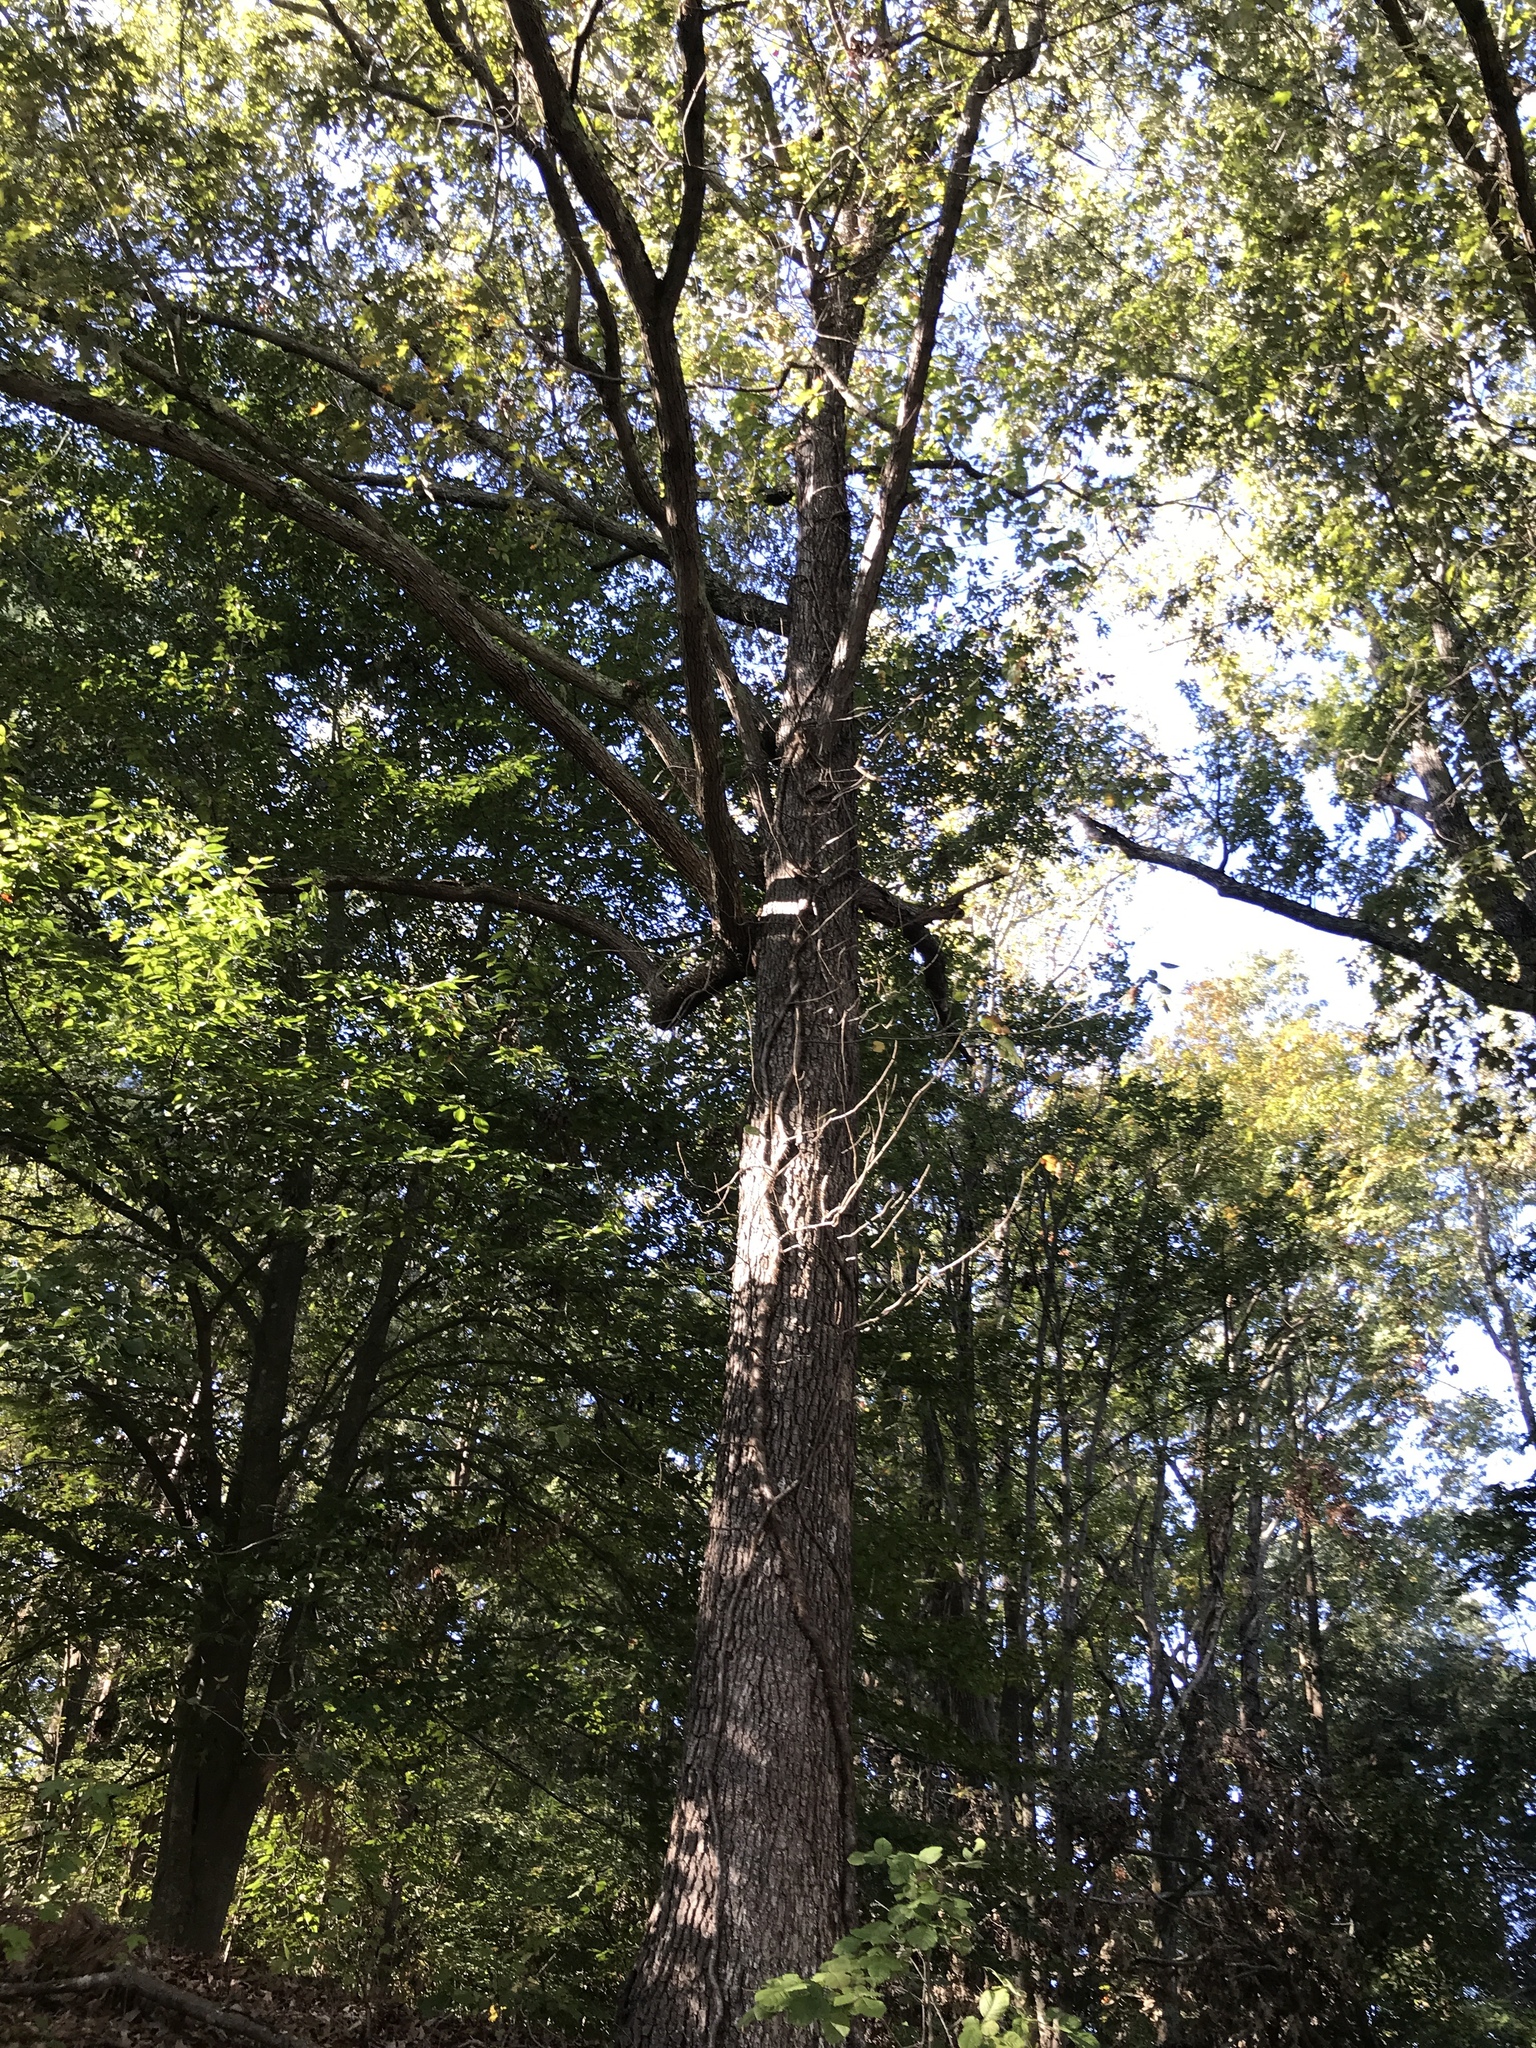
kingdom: Plantae
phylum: Tracheophyta
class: Magnoliopsida
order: Fagales
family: Fagaceae
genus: Quercus
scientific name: Quercus falcata
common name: Southern red oak
